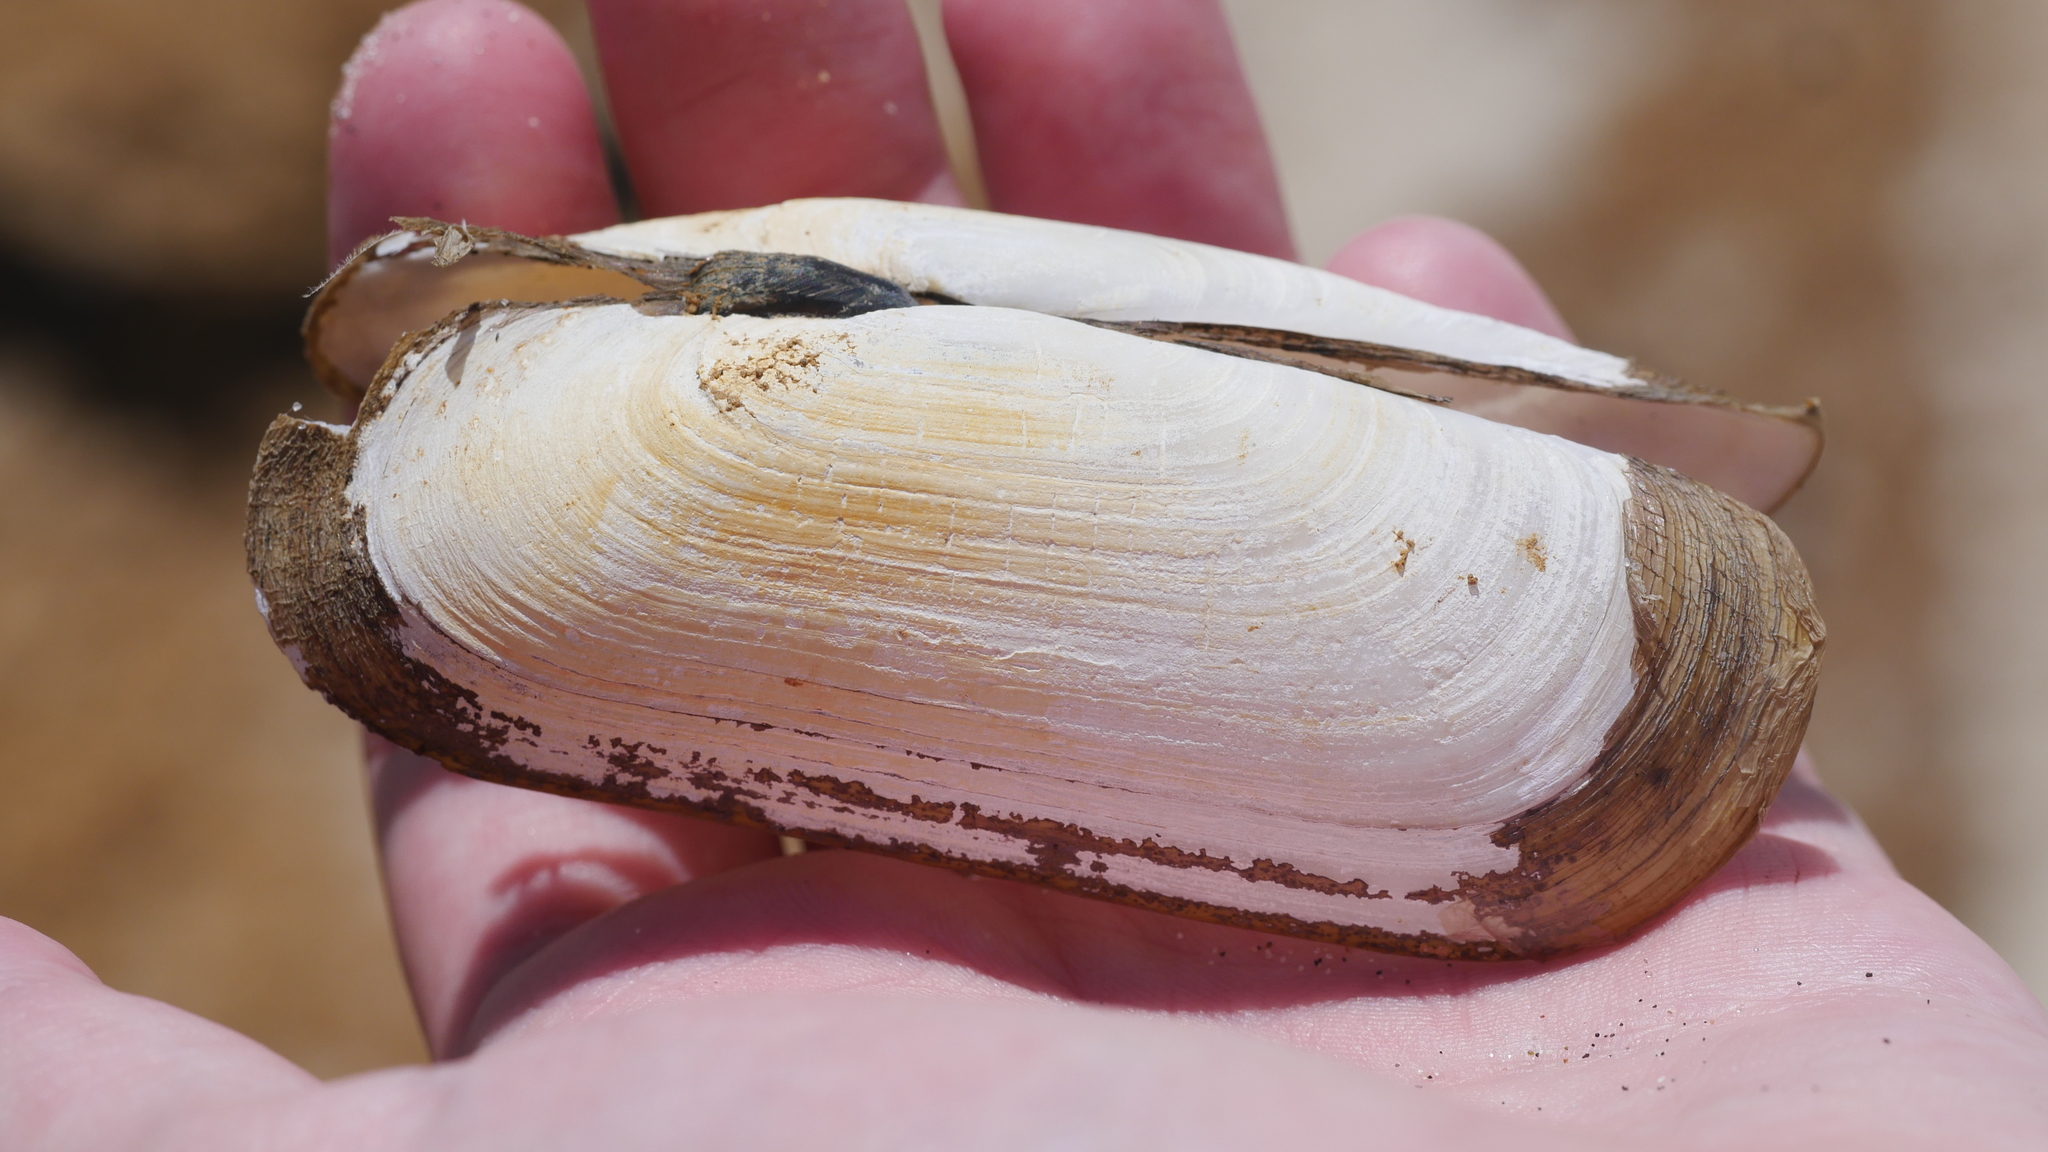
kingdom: Animalia
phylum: Mollusca
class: Bivalvia
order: Cardiida
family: Solecurtidae
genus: Tagelus
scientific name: Tagelus plebeius
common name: Stout tagelus
